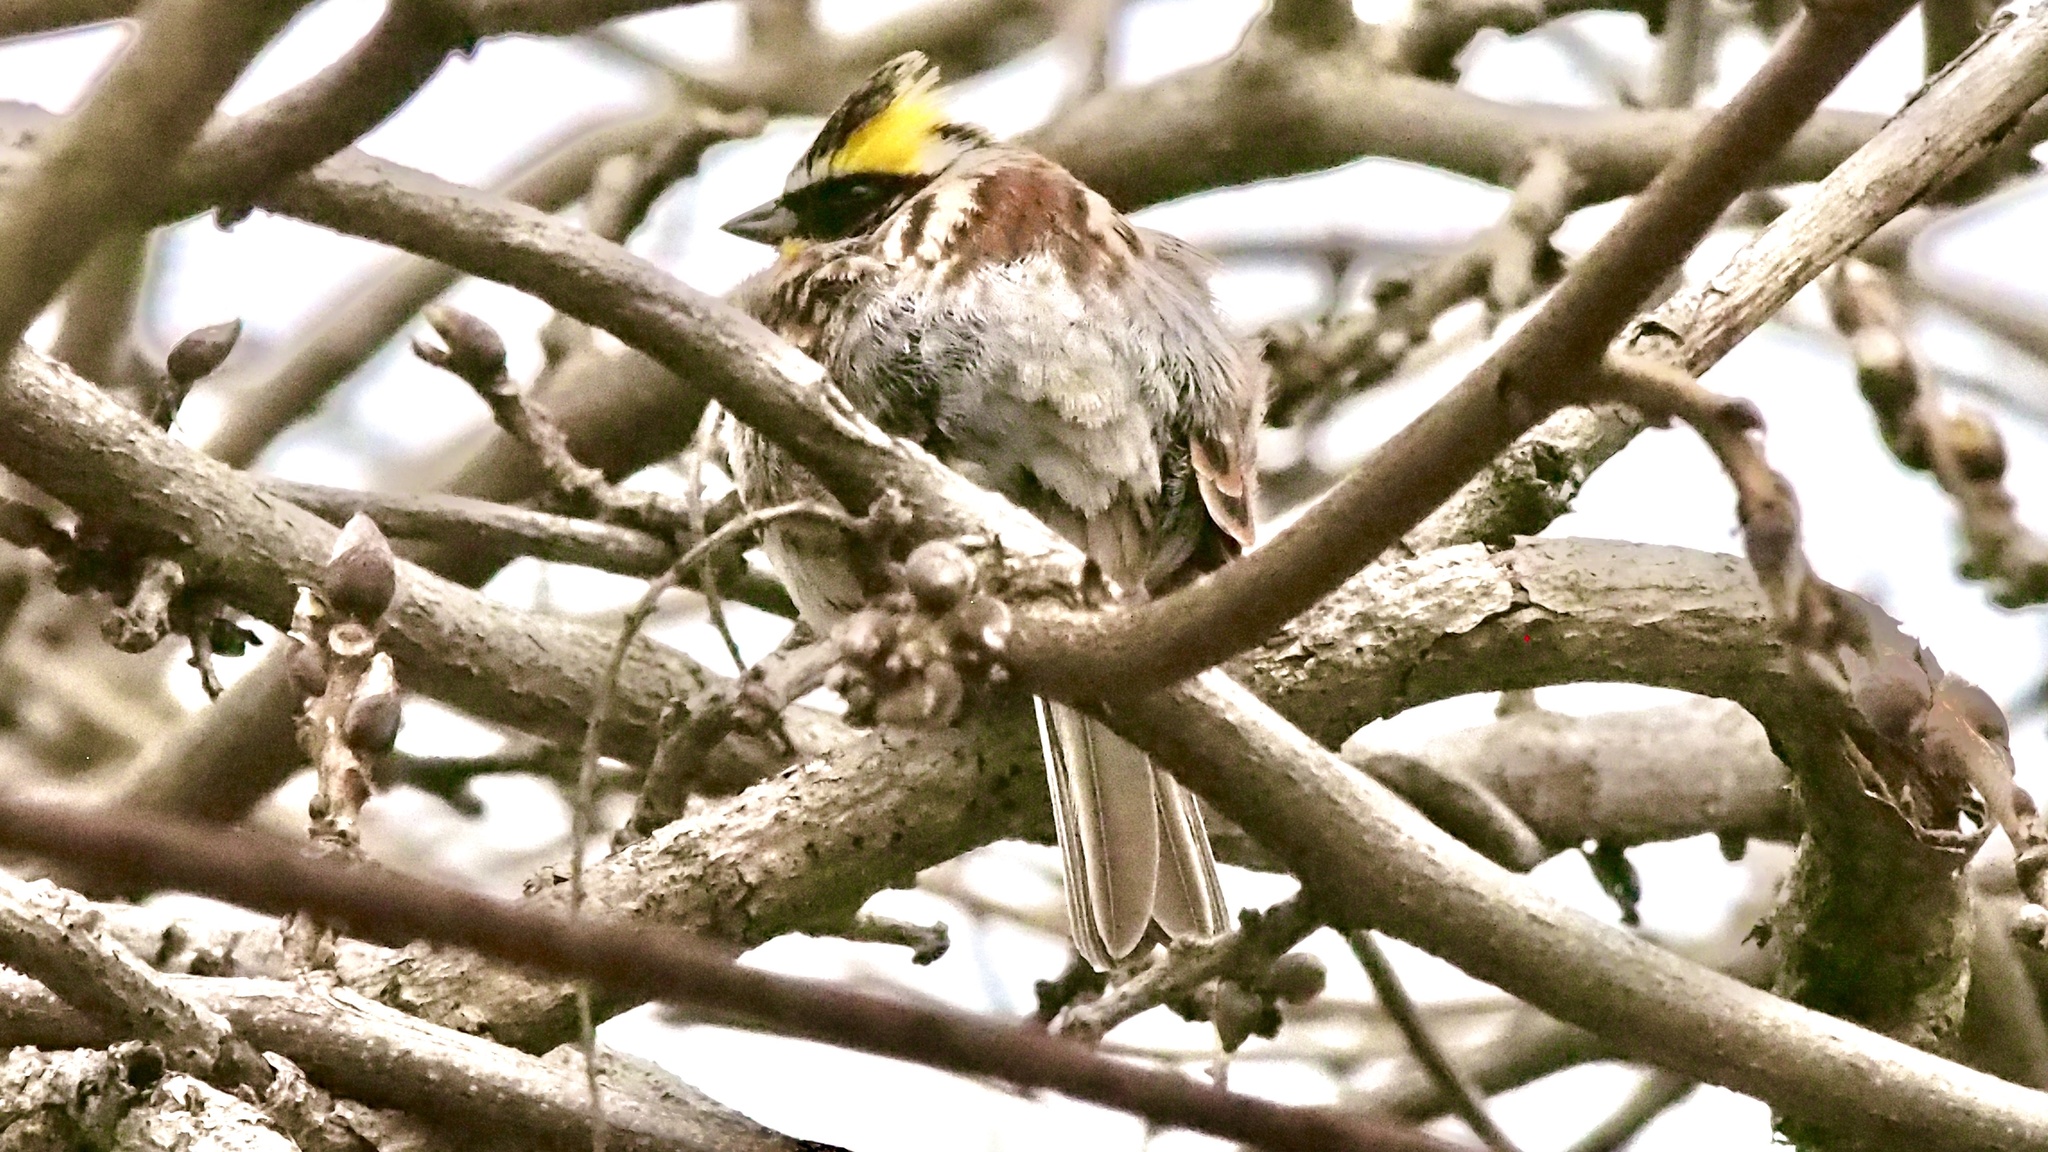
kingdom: Animalia
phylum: Chordata
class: Aves
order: Passeriformes
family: Emberizidae
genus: Emberiza
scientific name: Emberiza elegans
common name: Yellow-throated bunting
